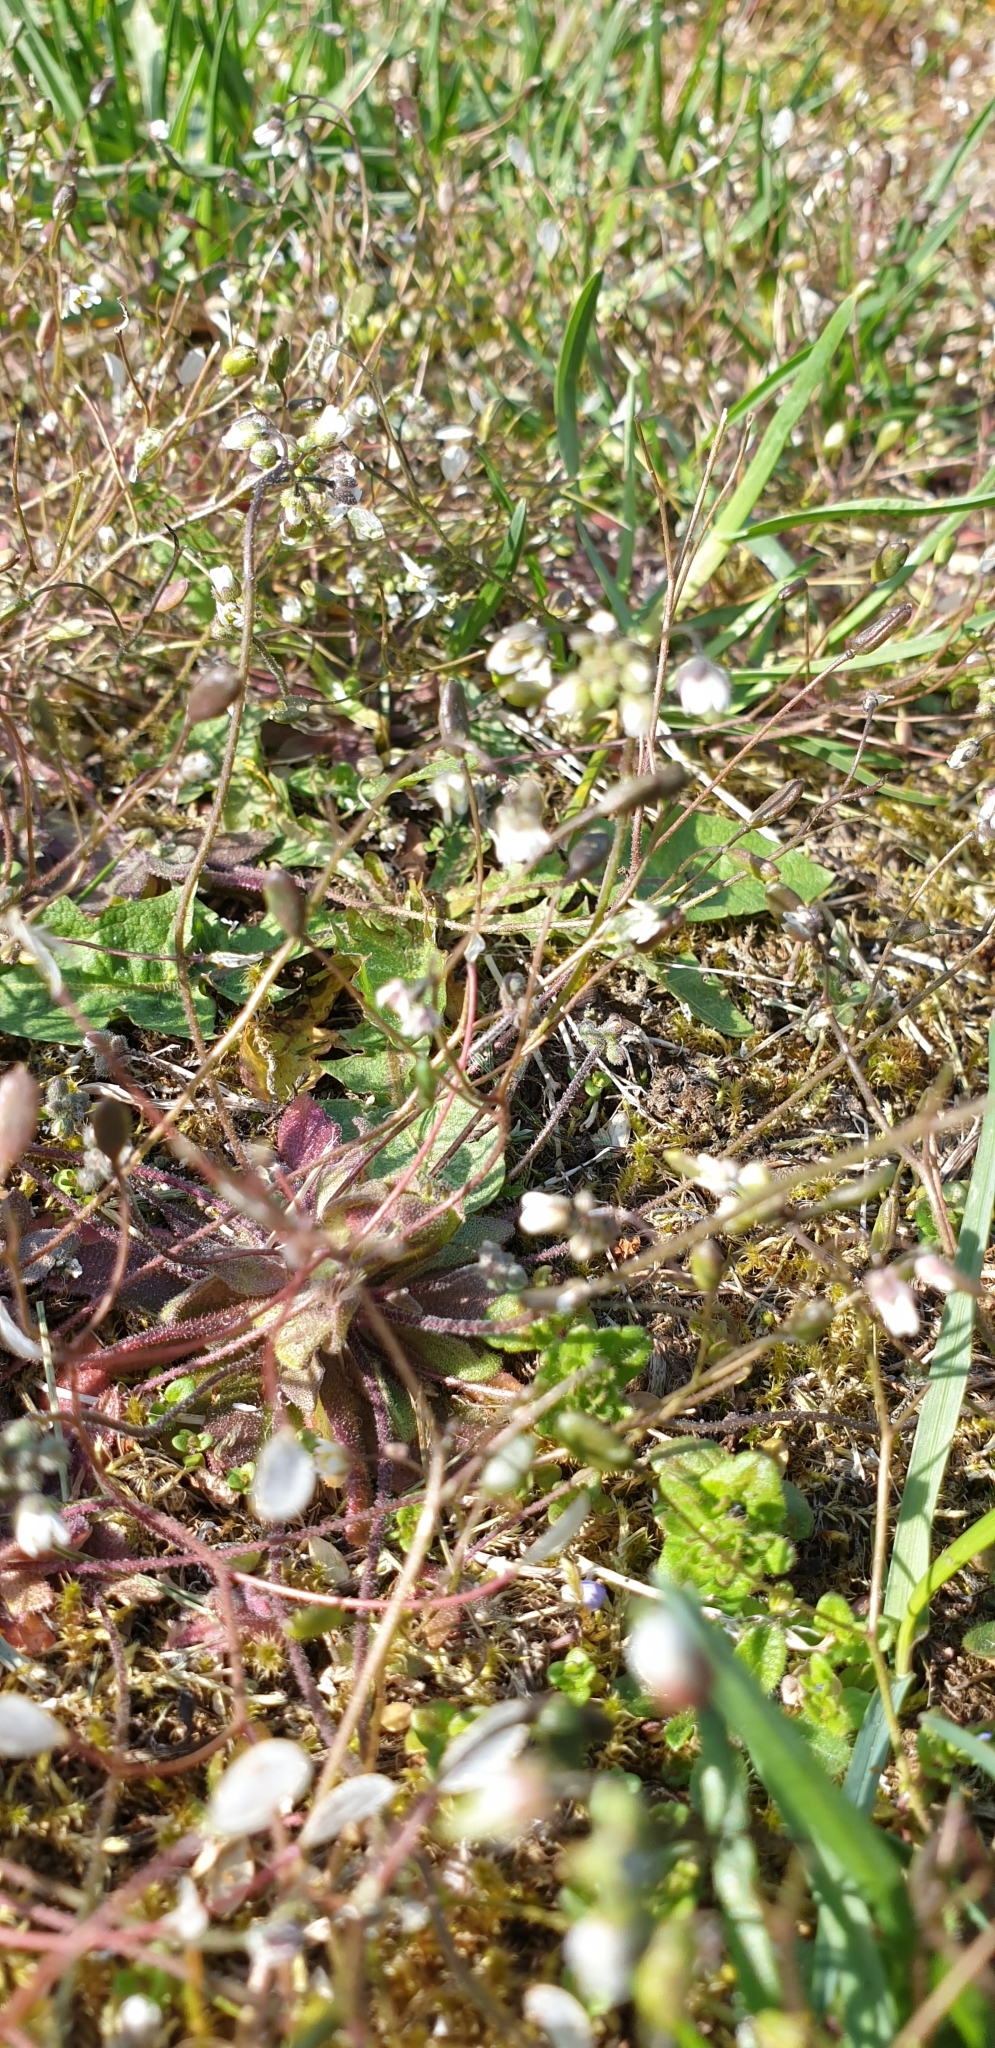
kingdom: Plantae
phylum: Tracheophyta
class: Magnoliopsida
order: Brassicales
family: Brassicaceae
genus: Draba
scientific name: Draba verna
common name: Spring draba
